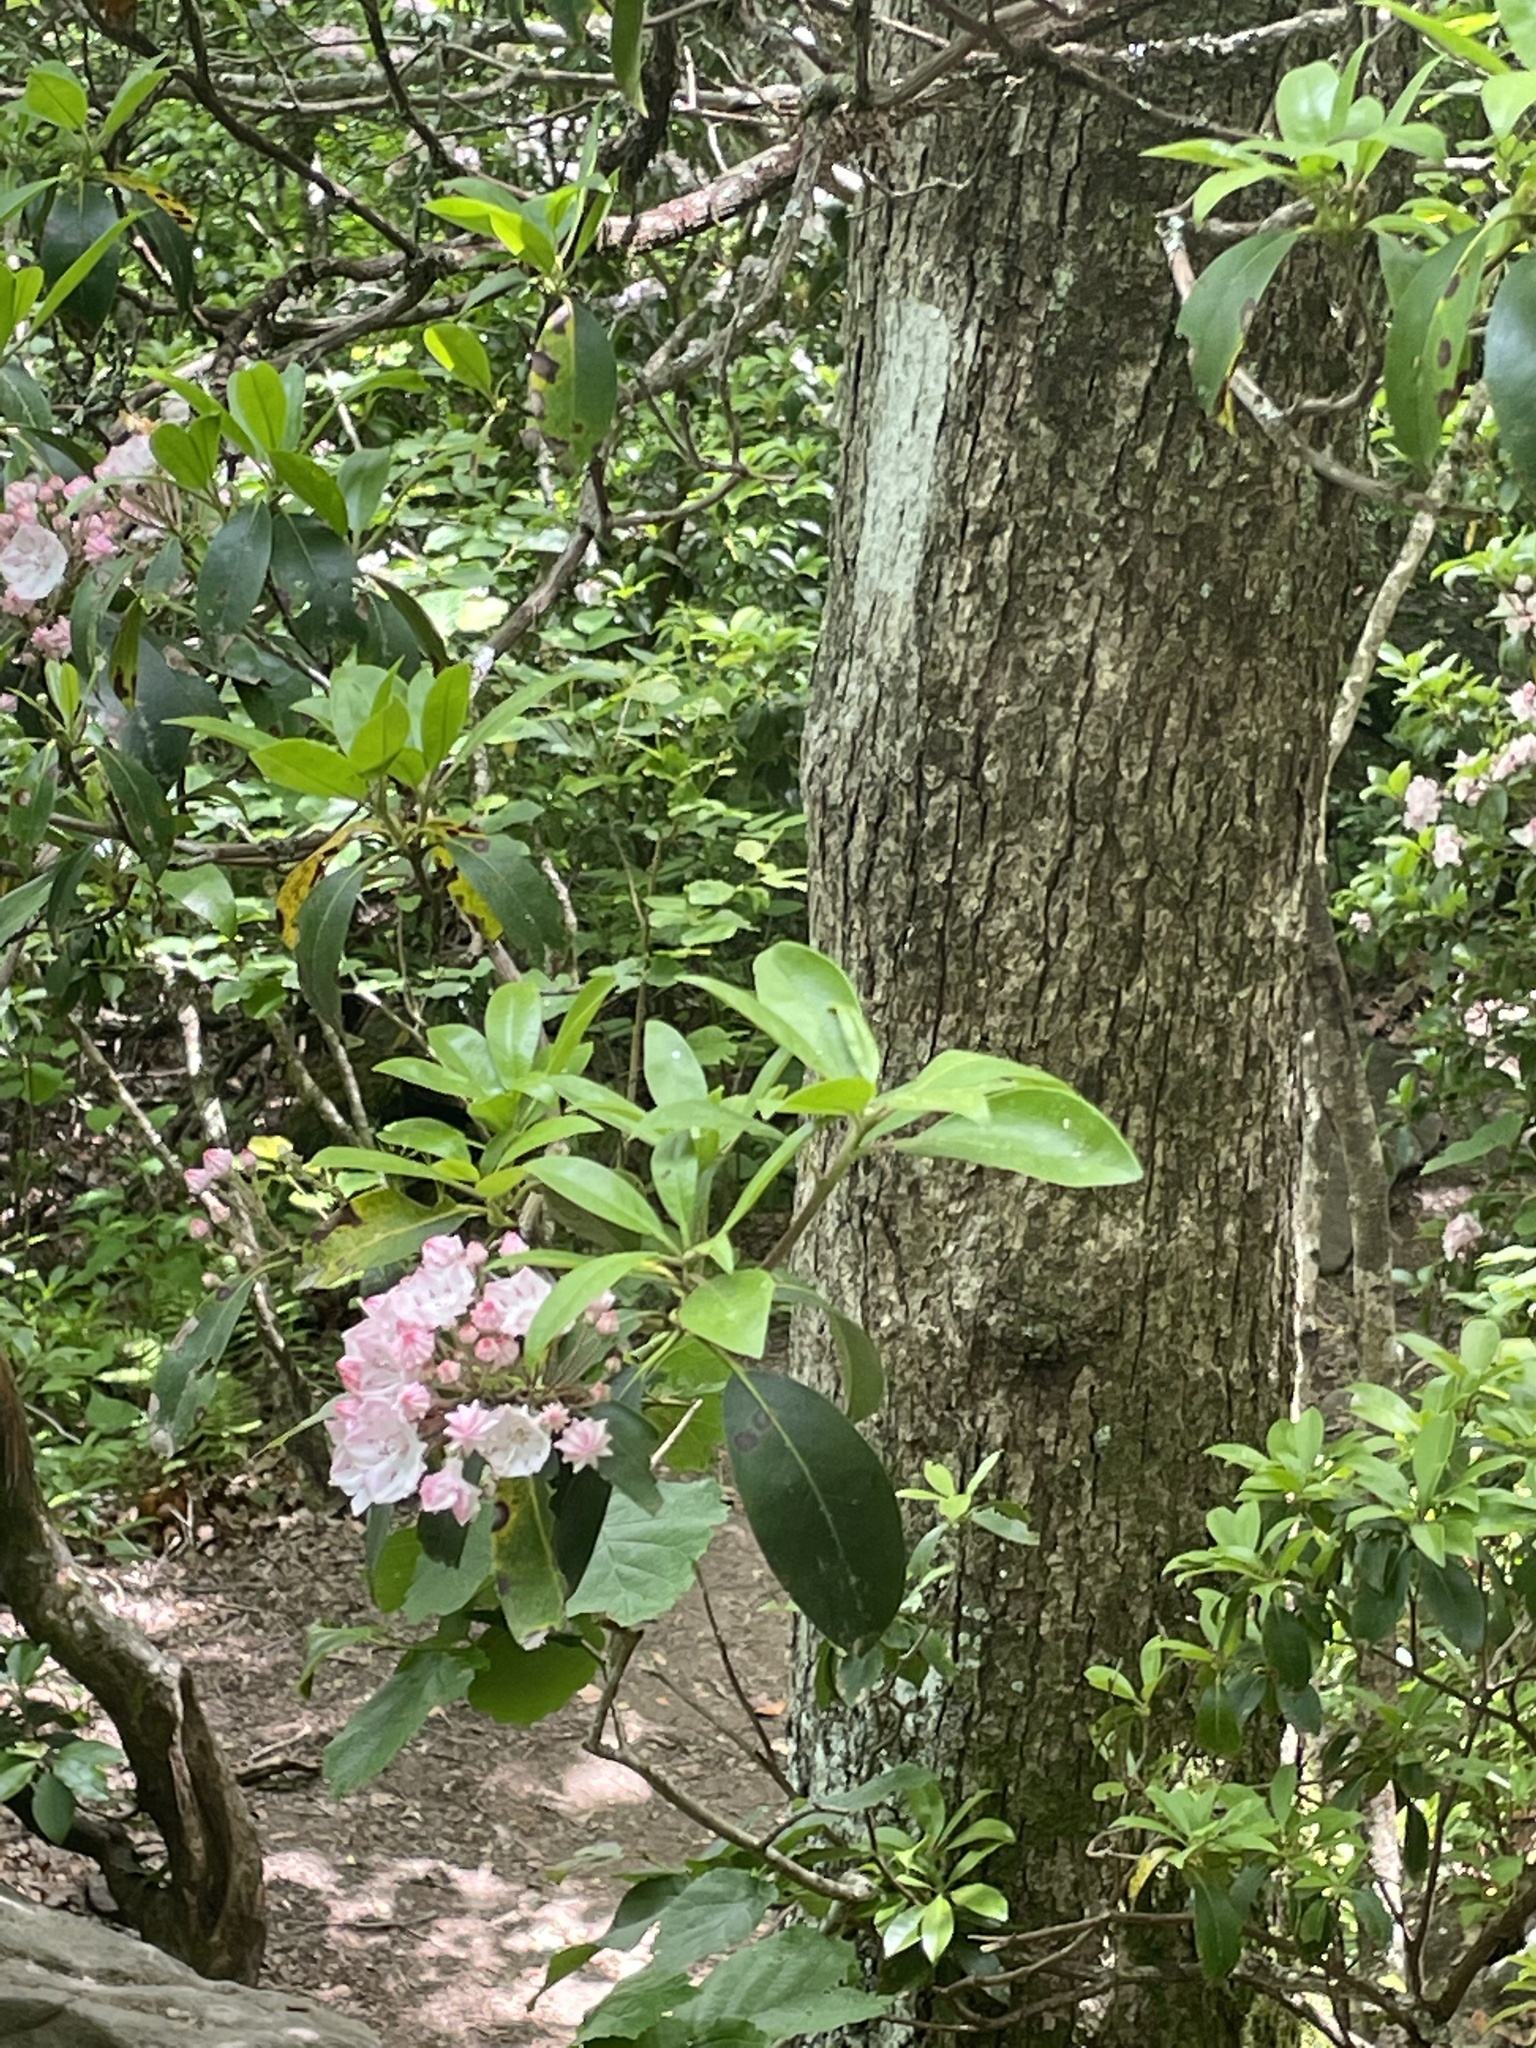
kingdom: Plantae
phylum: Tracheophyta
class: Magnoliopsida
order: Ericales
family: Ericaceae
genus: Kalmia
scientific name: Kalmia latifolia
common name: Mountain-laurel
